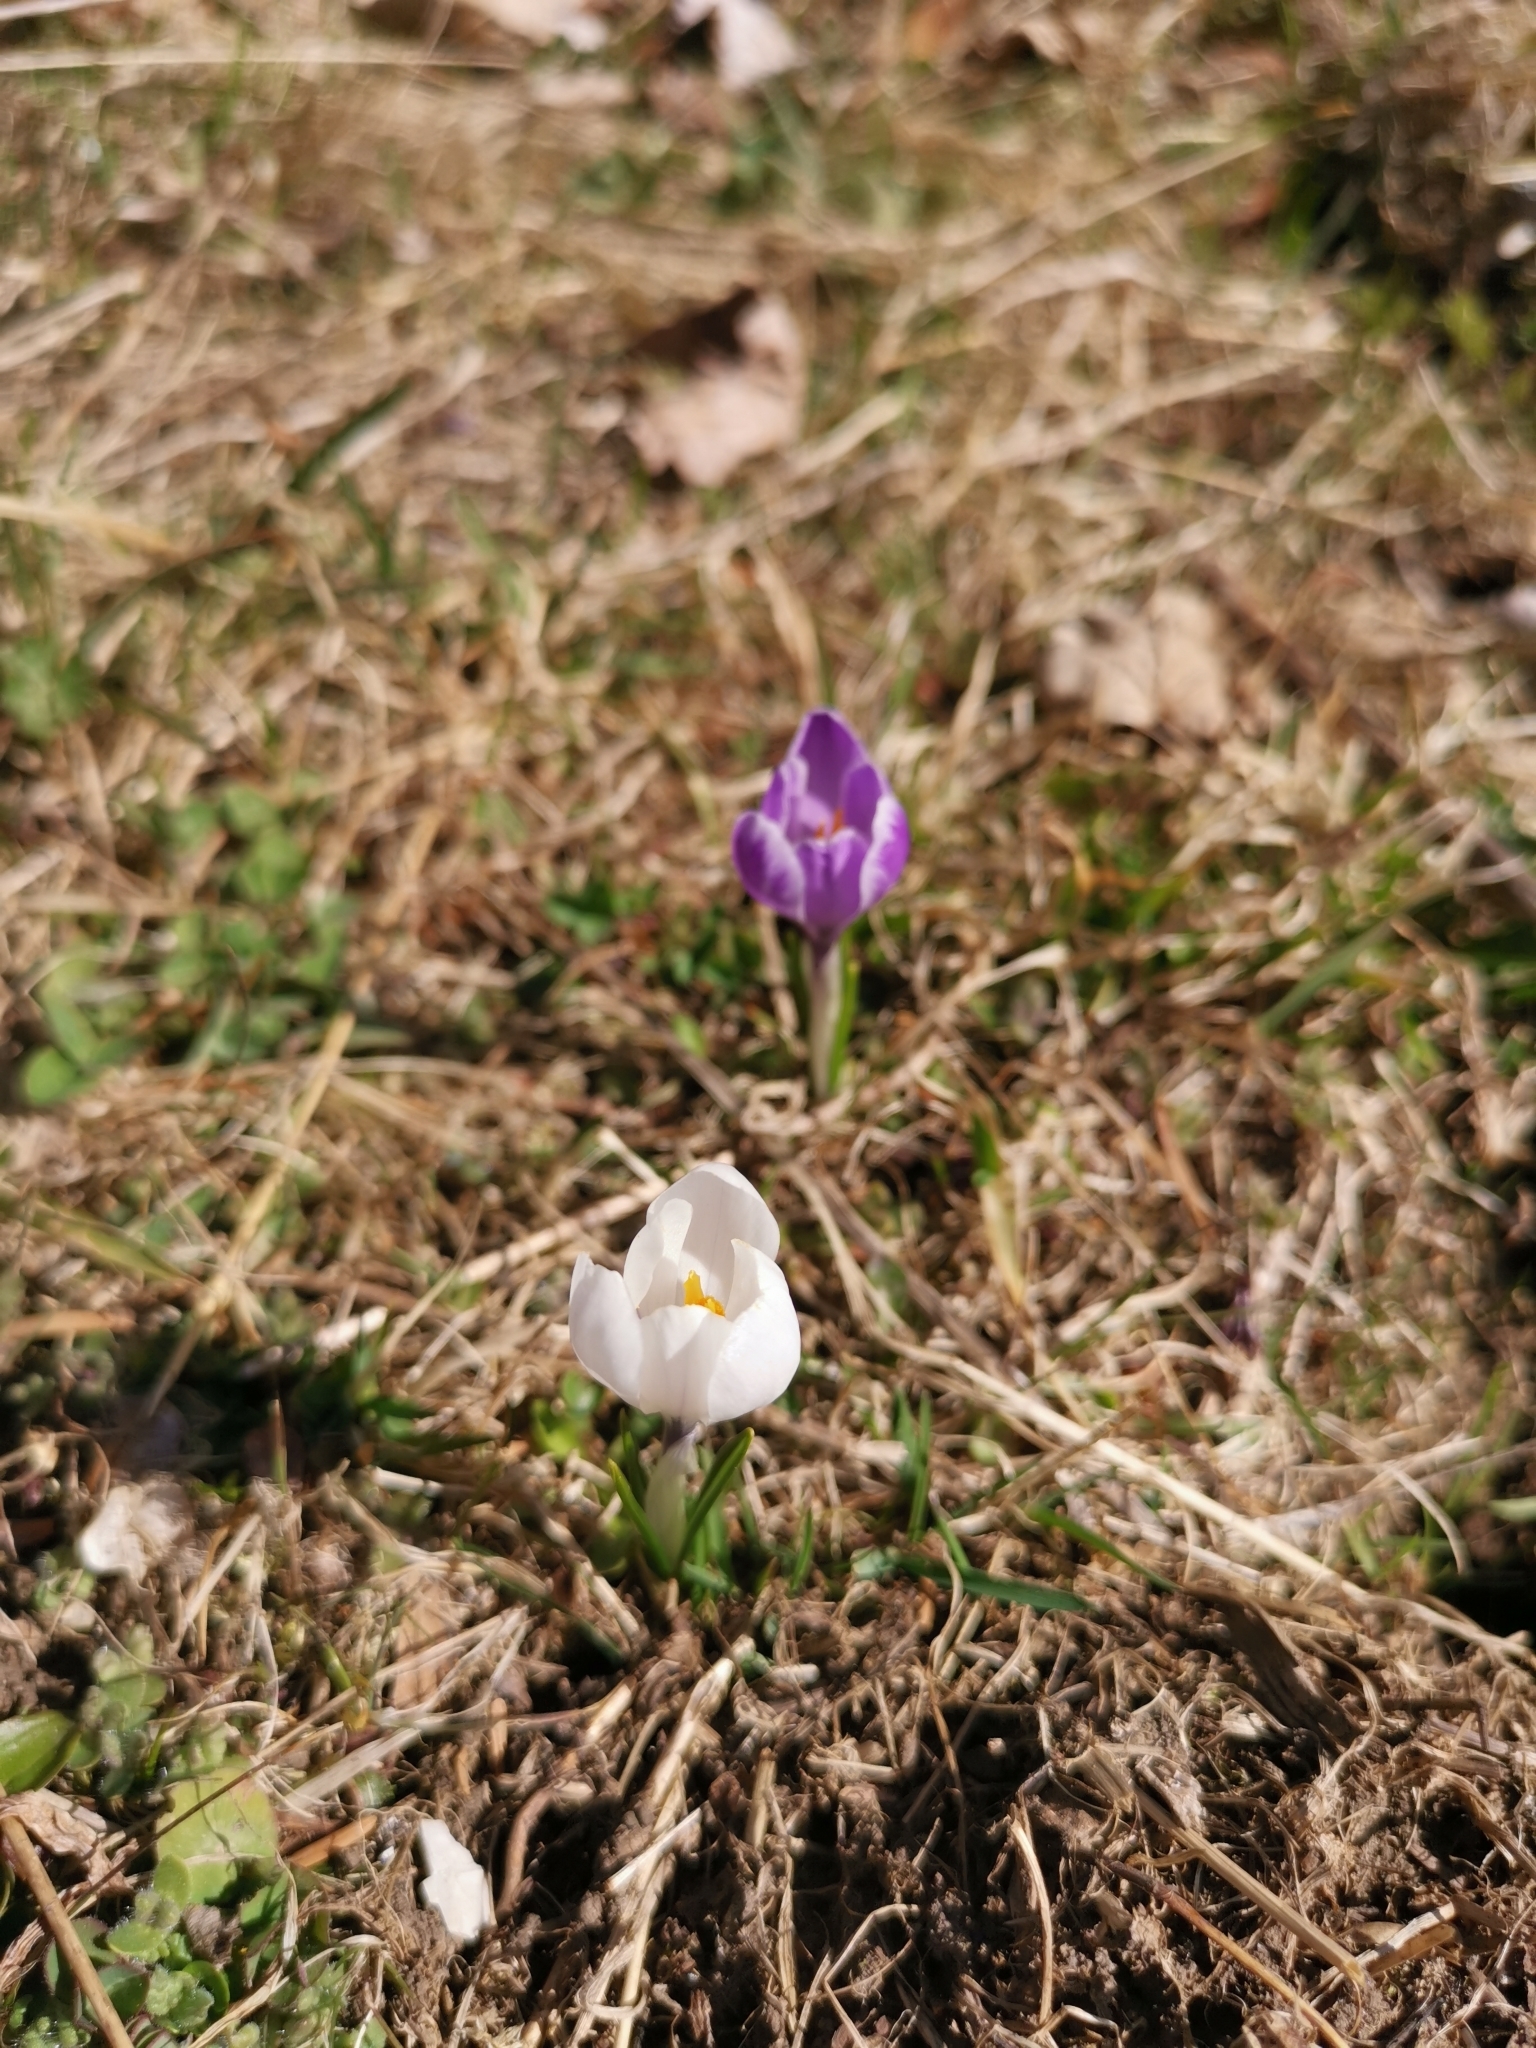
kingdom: Plantae
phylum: Tracheophyta
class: Liliopsida
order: Asparagales
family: Iridaceae
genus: Crocus
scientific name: Crocus vernus
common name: Spring crocus
